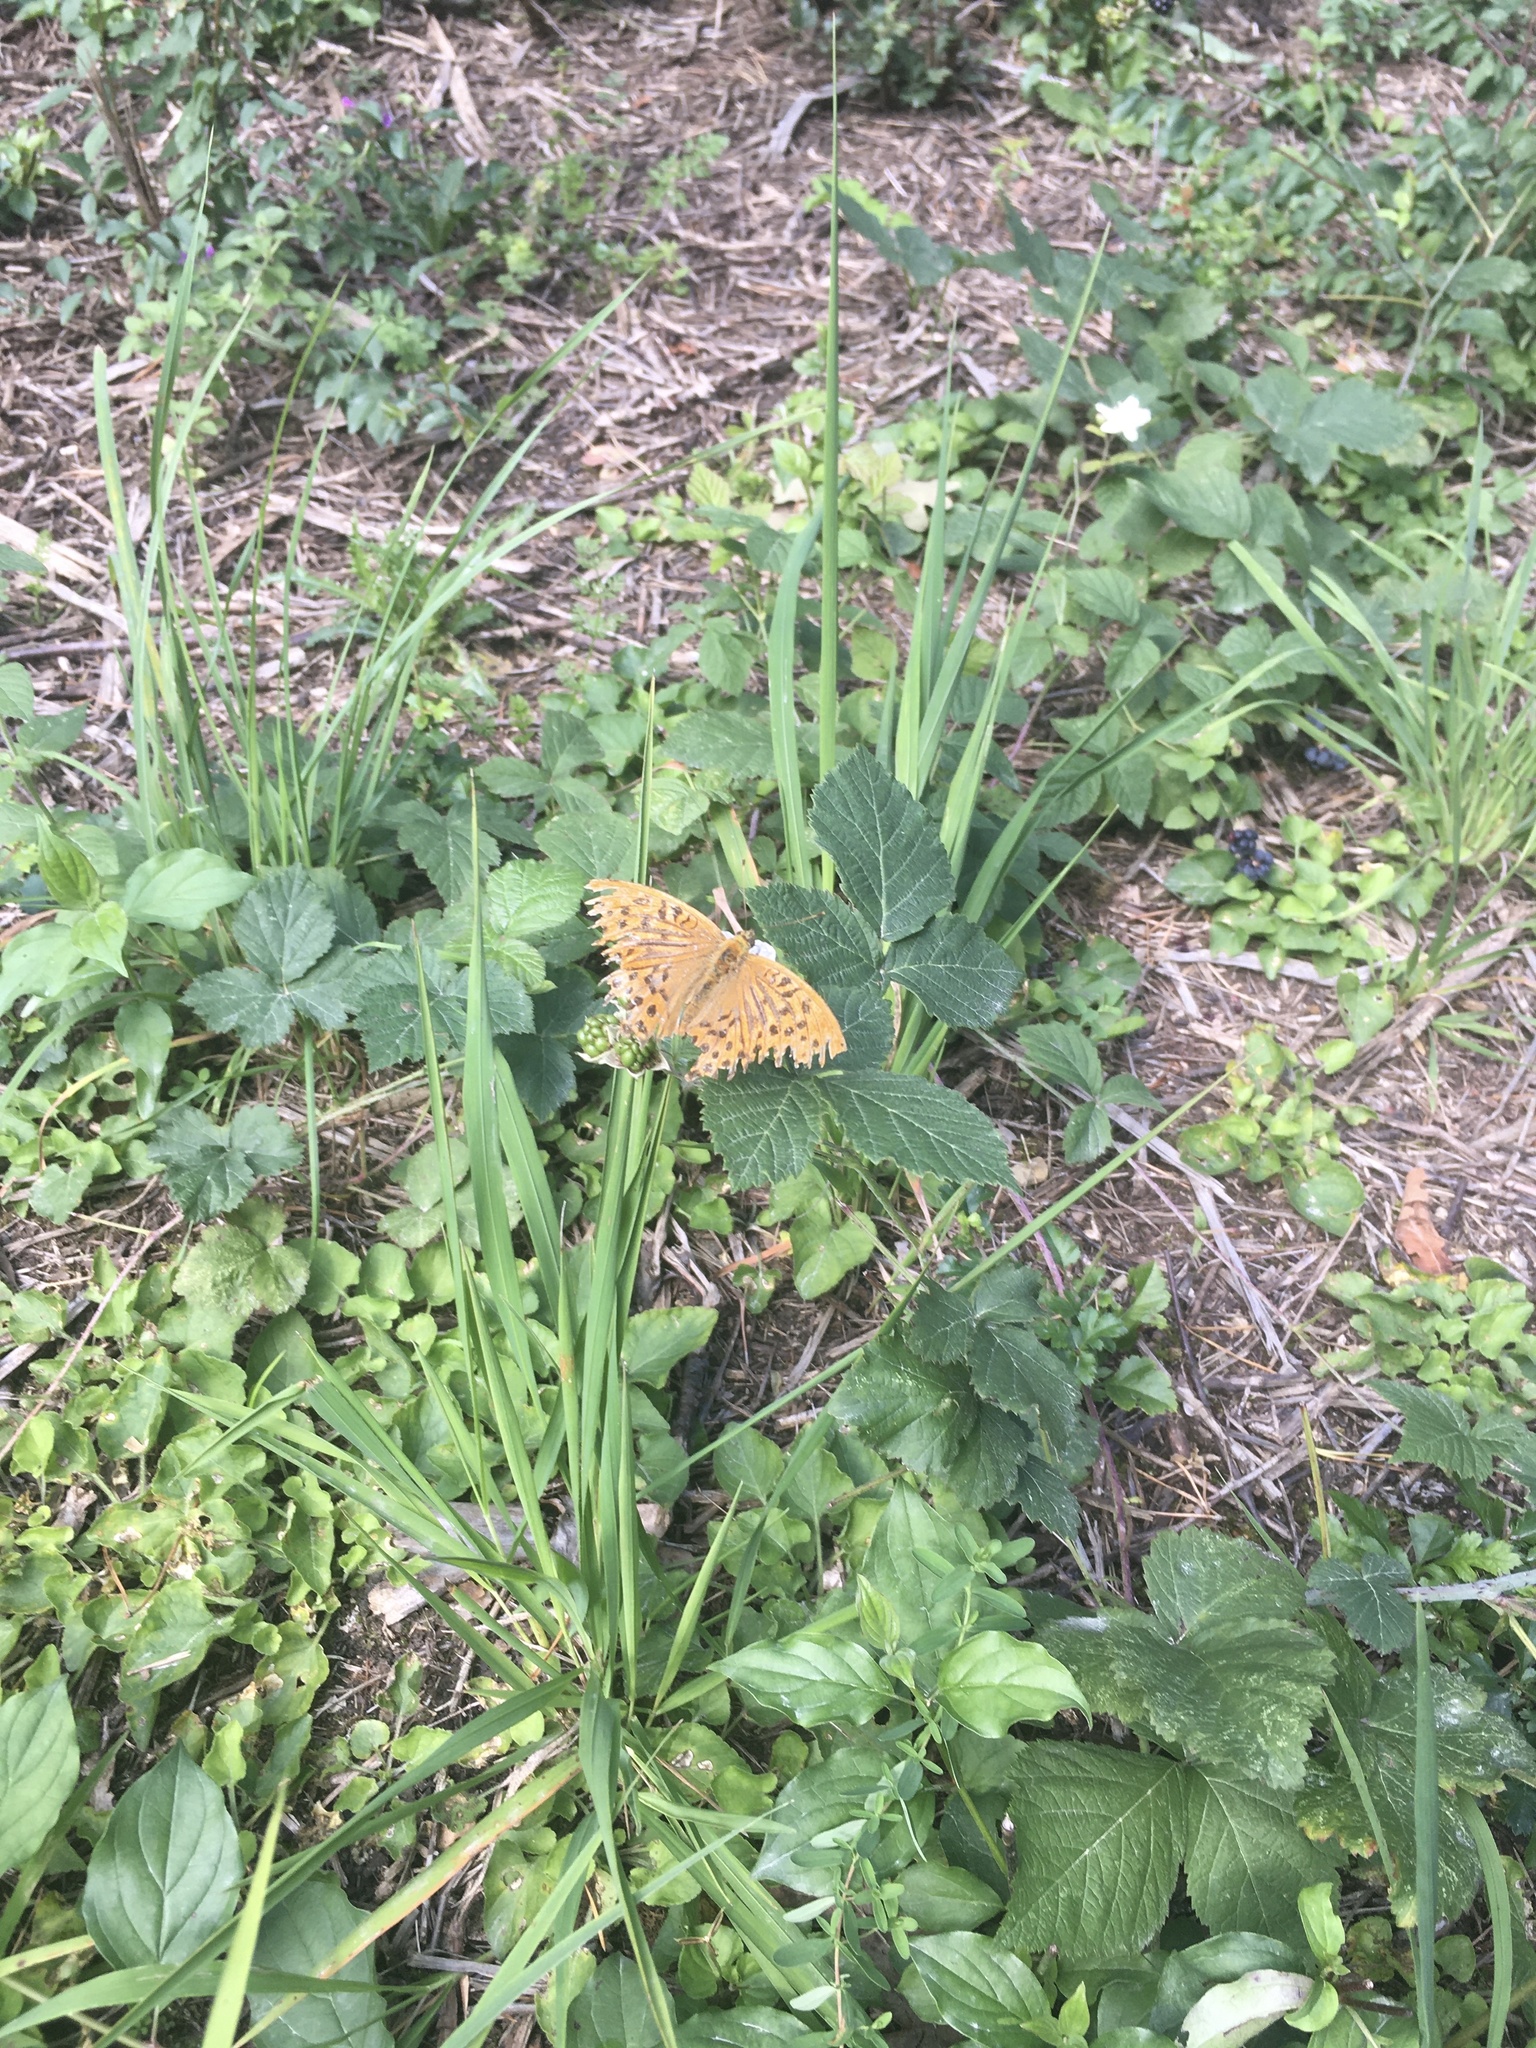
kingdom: Animalia
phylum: Arthropoda
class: Insecta
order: Lepidoptera
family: Nymphalidae
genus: Argynnis
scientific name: Argynnis paphia
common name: Silver-washed fritillary
